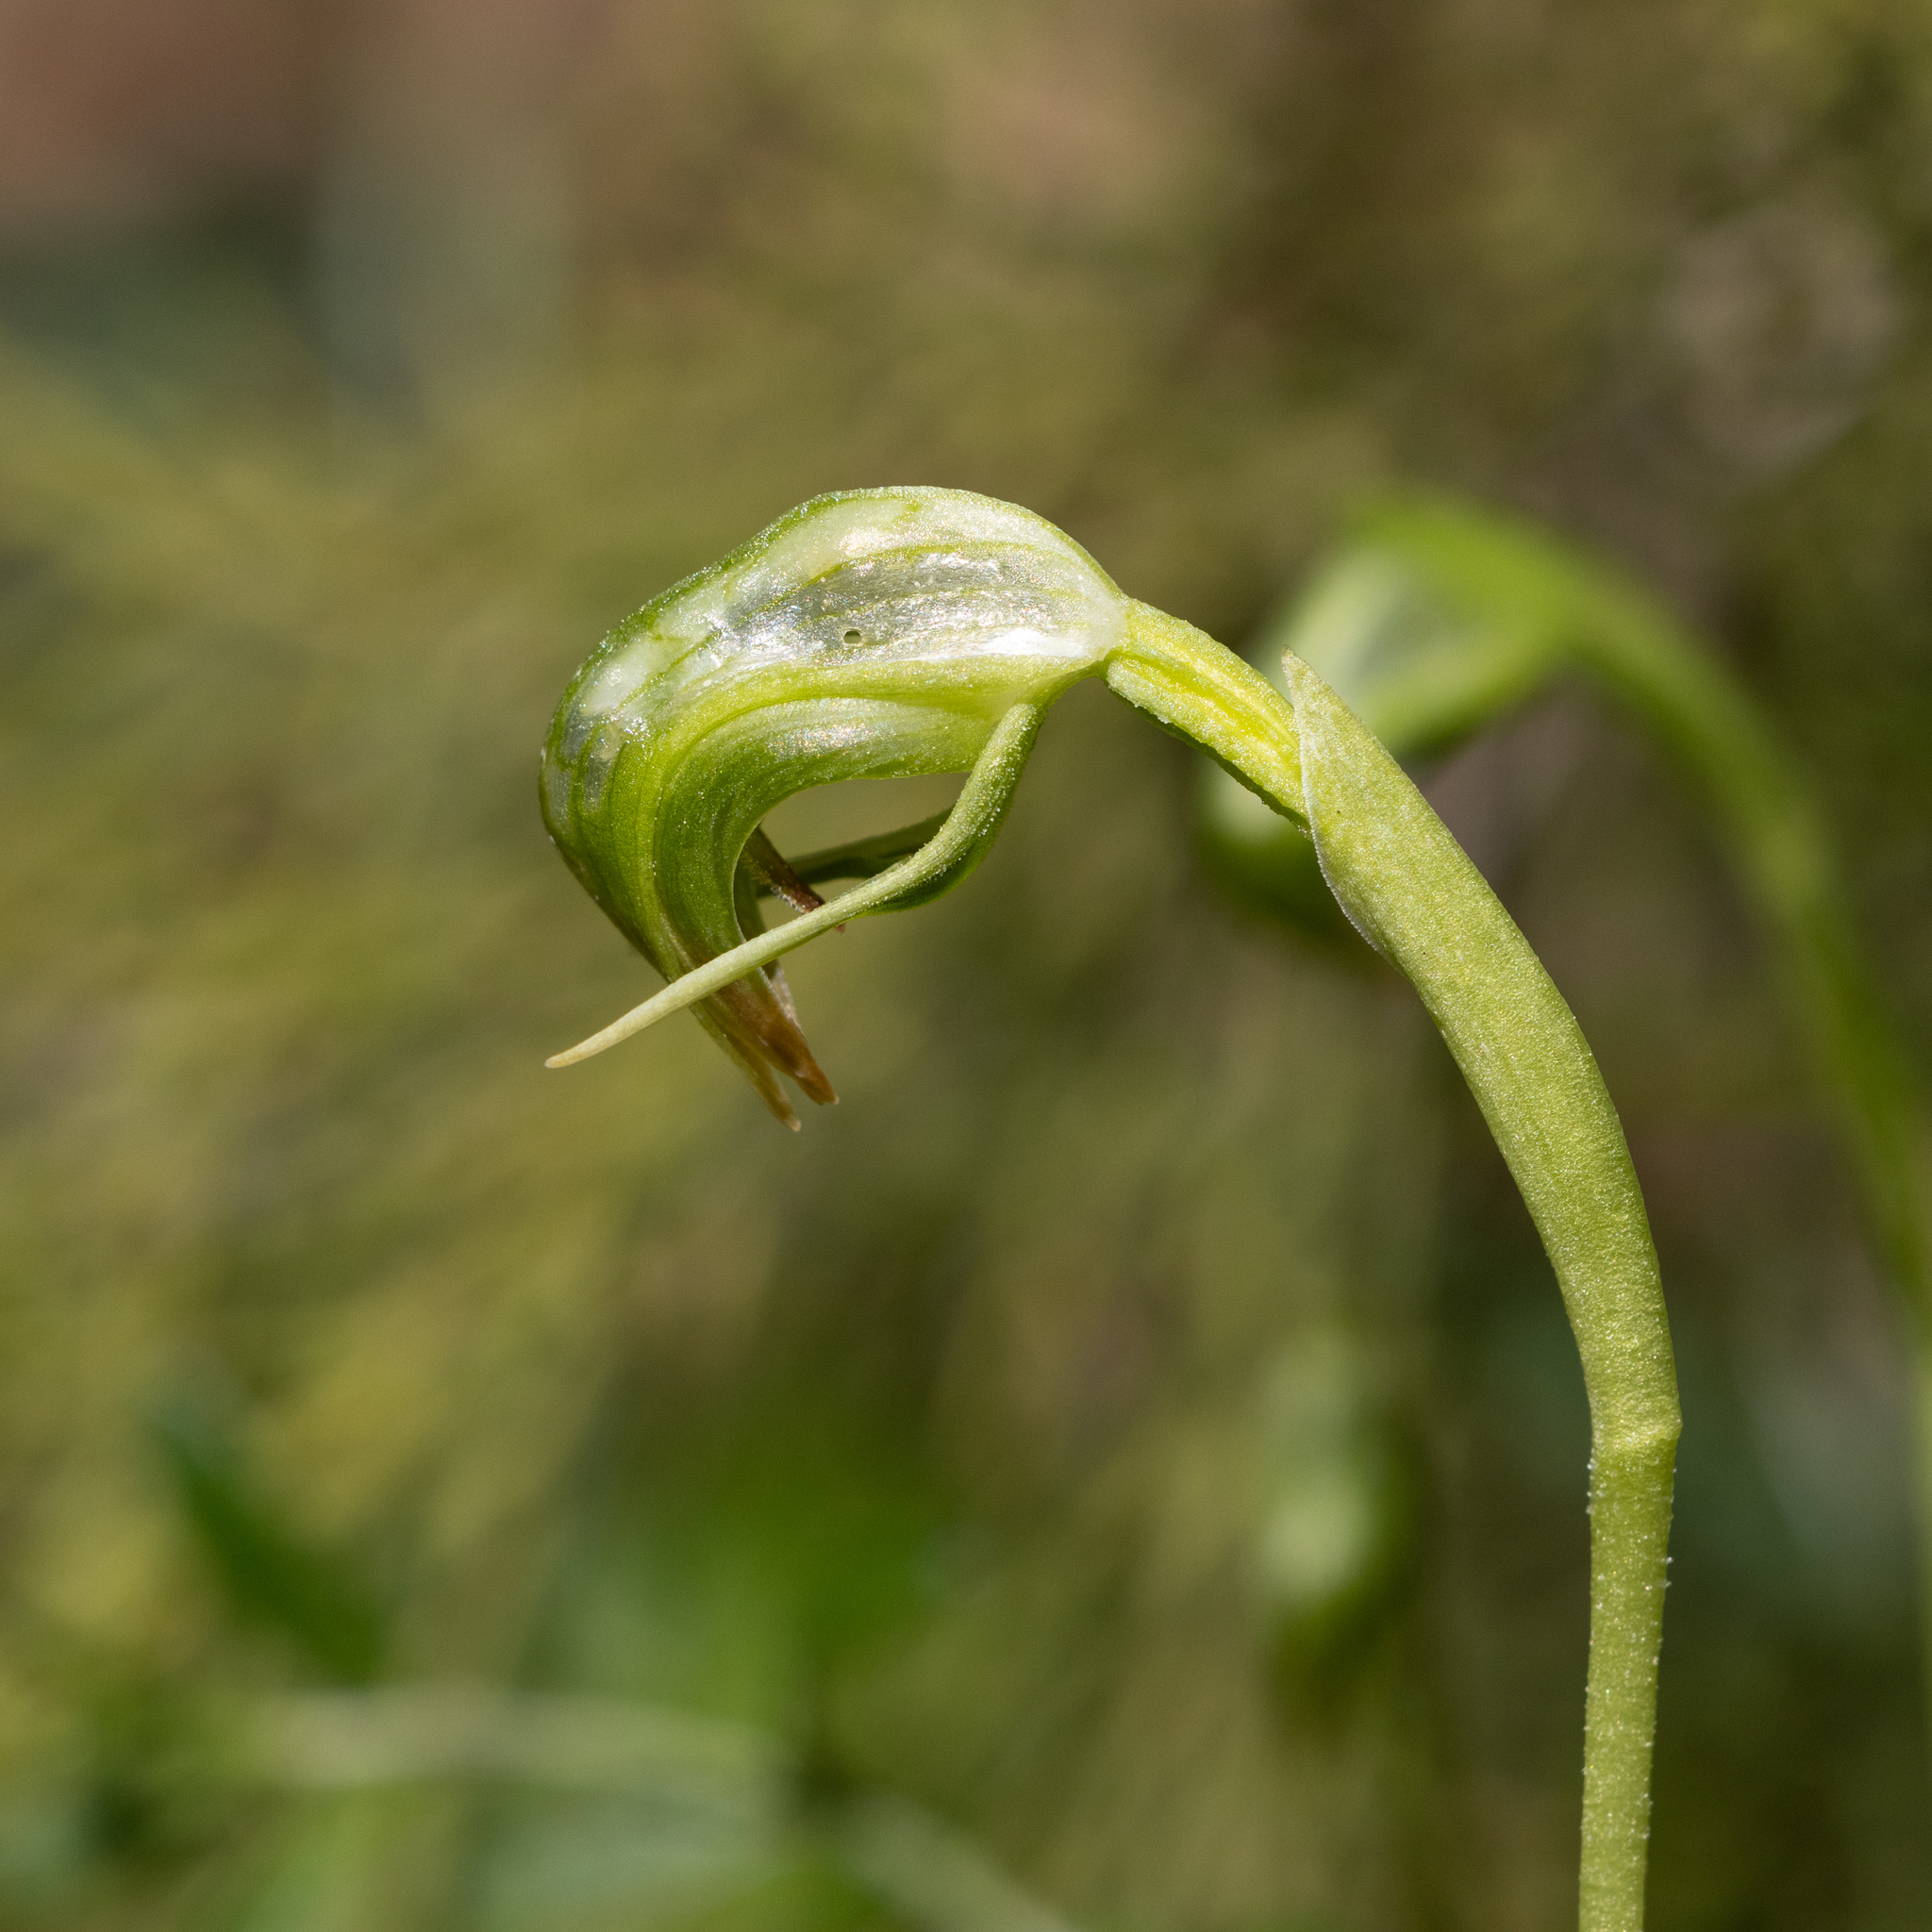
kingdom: Plantae
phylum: Tracheophyta
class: Liliopsida
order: Asparagales
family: Orchidaceae
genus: Pterostylis
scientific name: Pterostylis nutans
